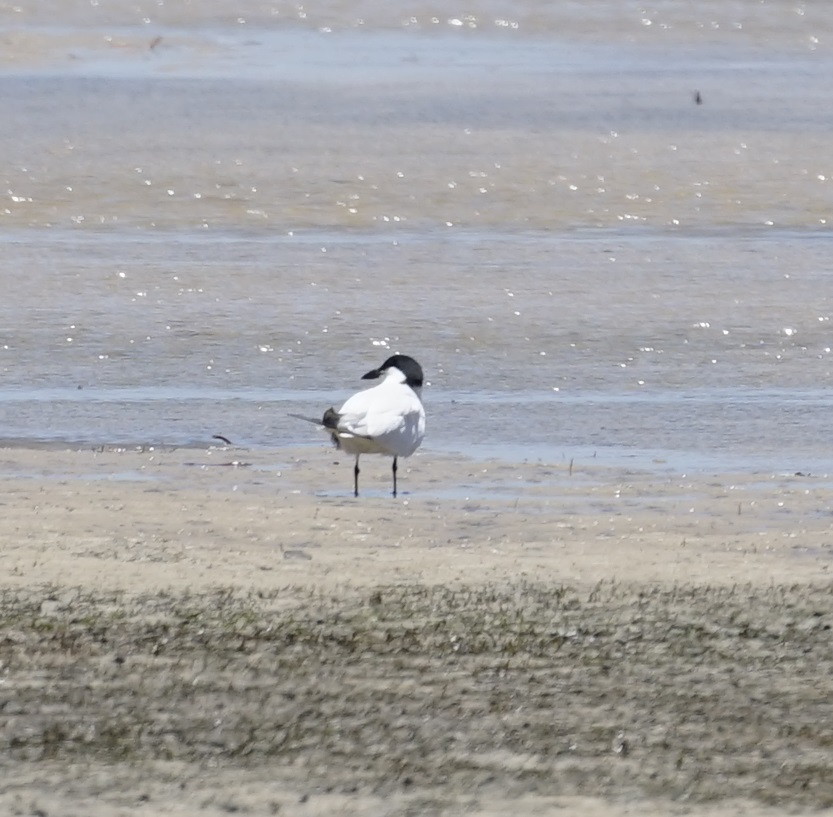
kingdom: Animalia
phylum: Chordata
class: Aves
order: Charadriiformes
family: Laridae
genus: Gelochelidon
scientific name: Gelochelidon macrotarsa
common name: Australian tern
